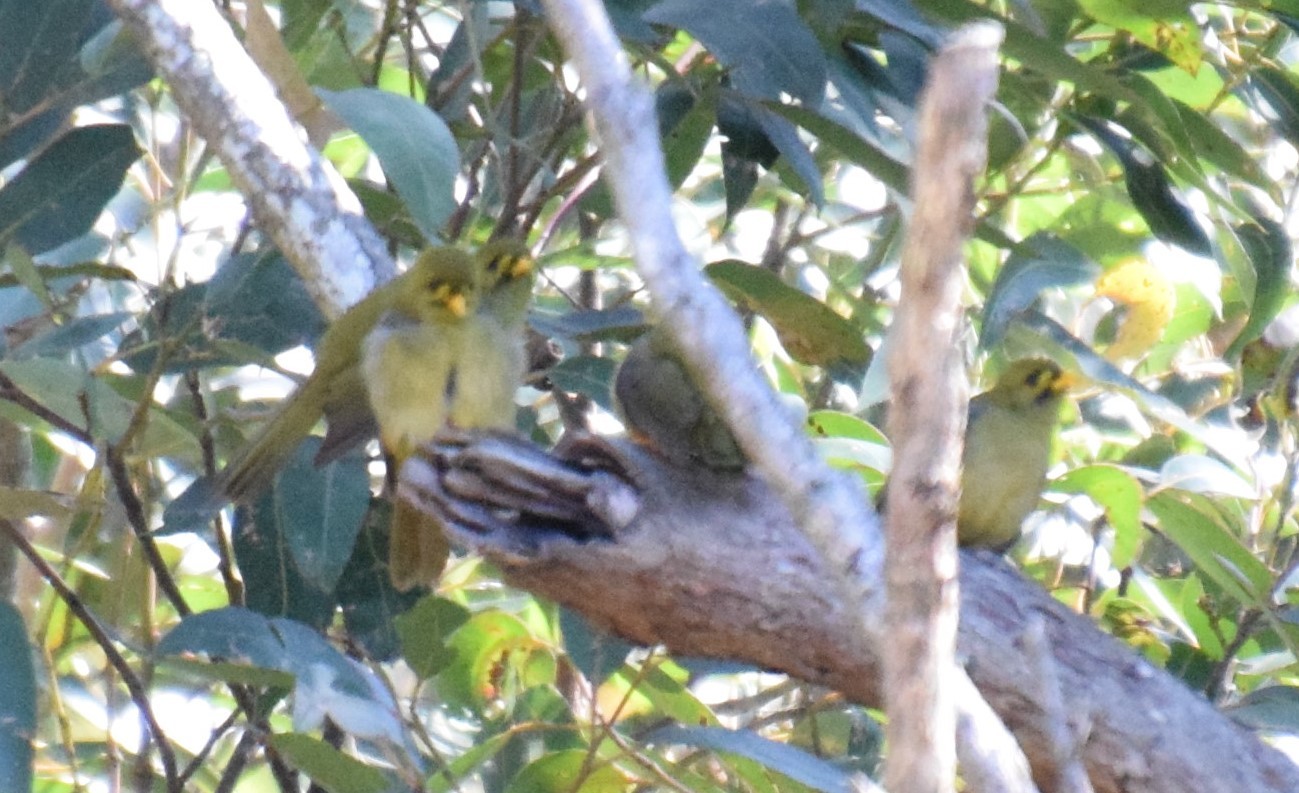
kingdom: Animalia
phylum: Chordata
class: Aves
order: Passeriformes
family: Meliphagidae
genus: Manorina
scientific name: Manorina melanophrys
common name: Bell miner
